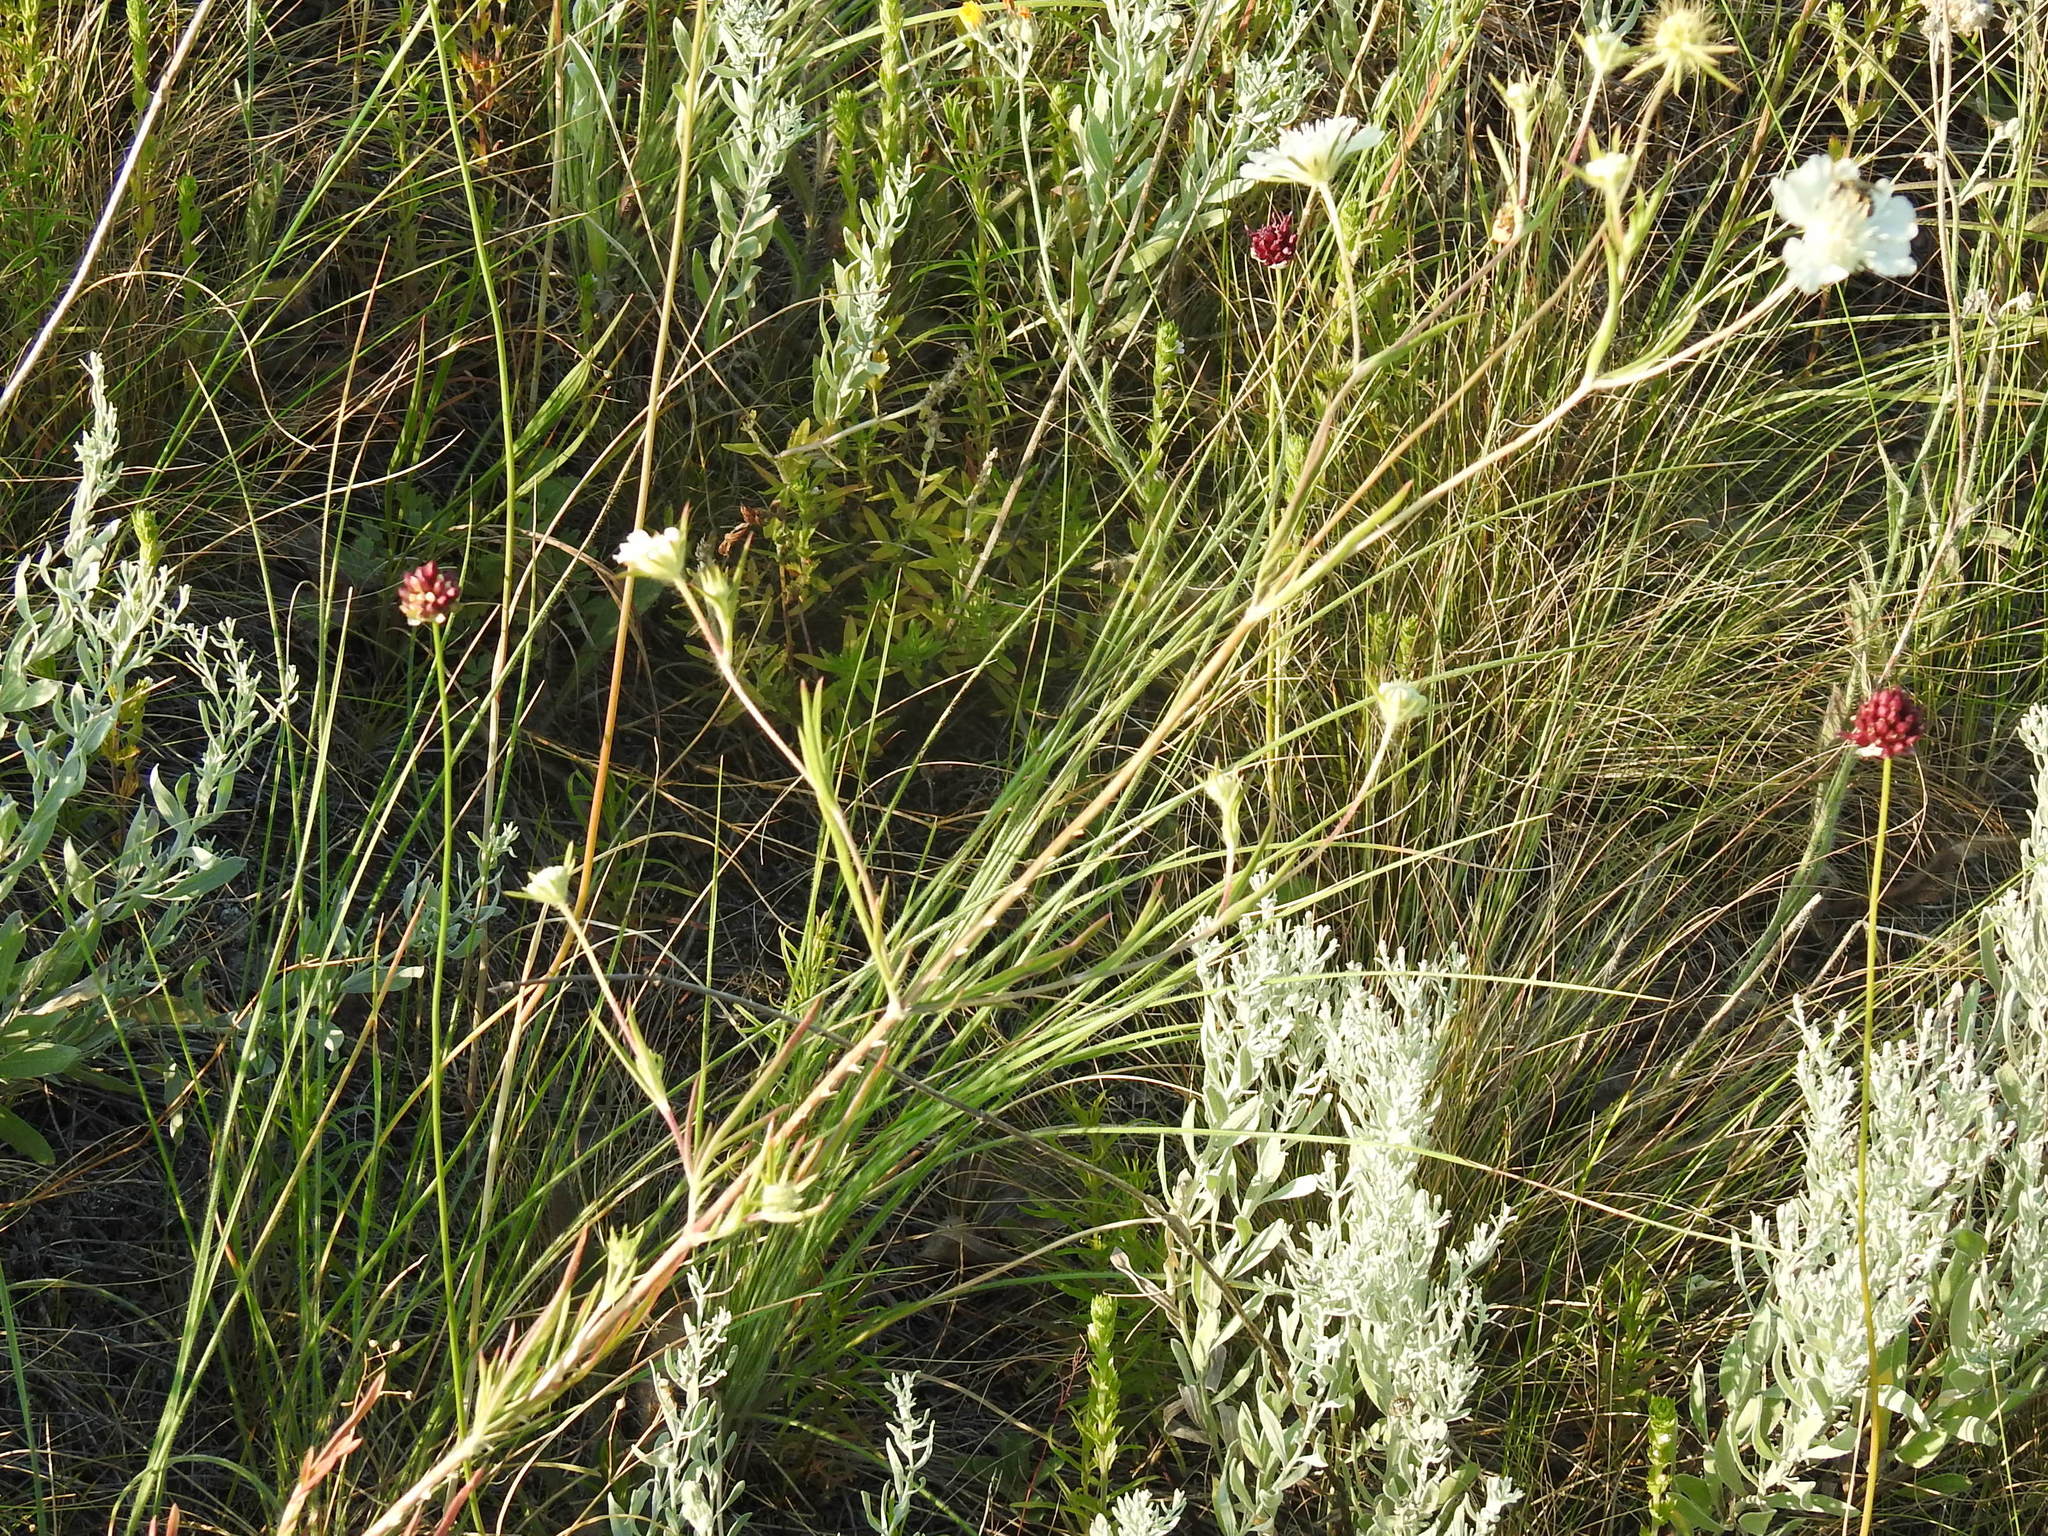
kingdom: Plantae
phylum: Tracheophyta
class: Magnoliopsida
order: Dipsacales
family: Caprifoliaceae
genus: Lomelosia
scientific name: Lomelosia argentea
